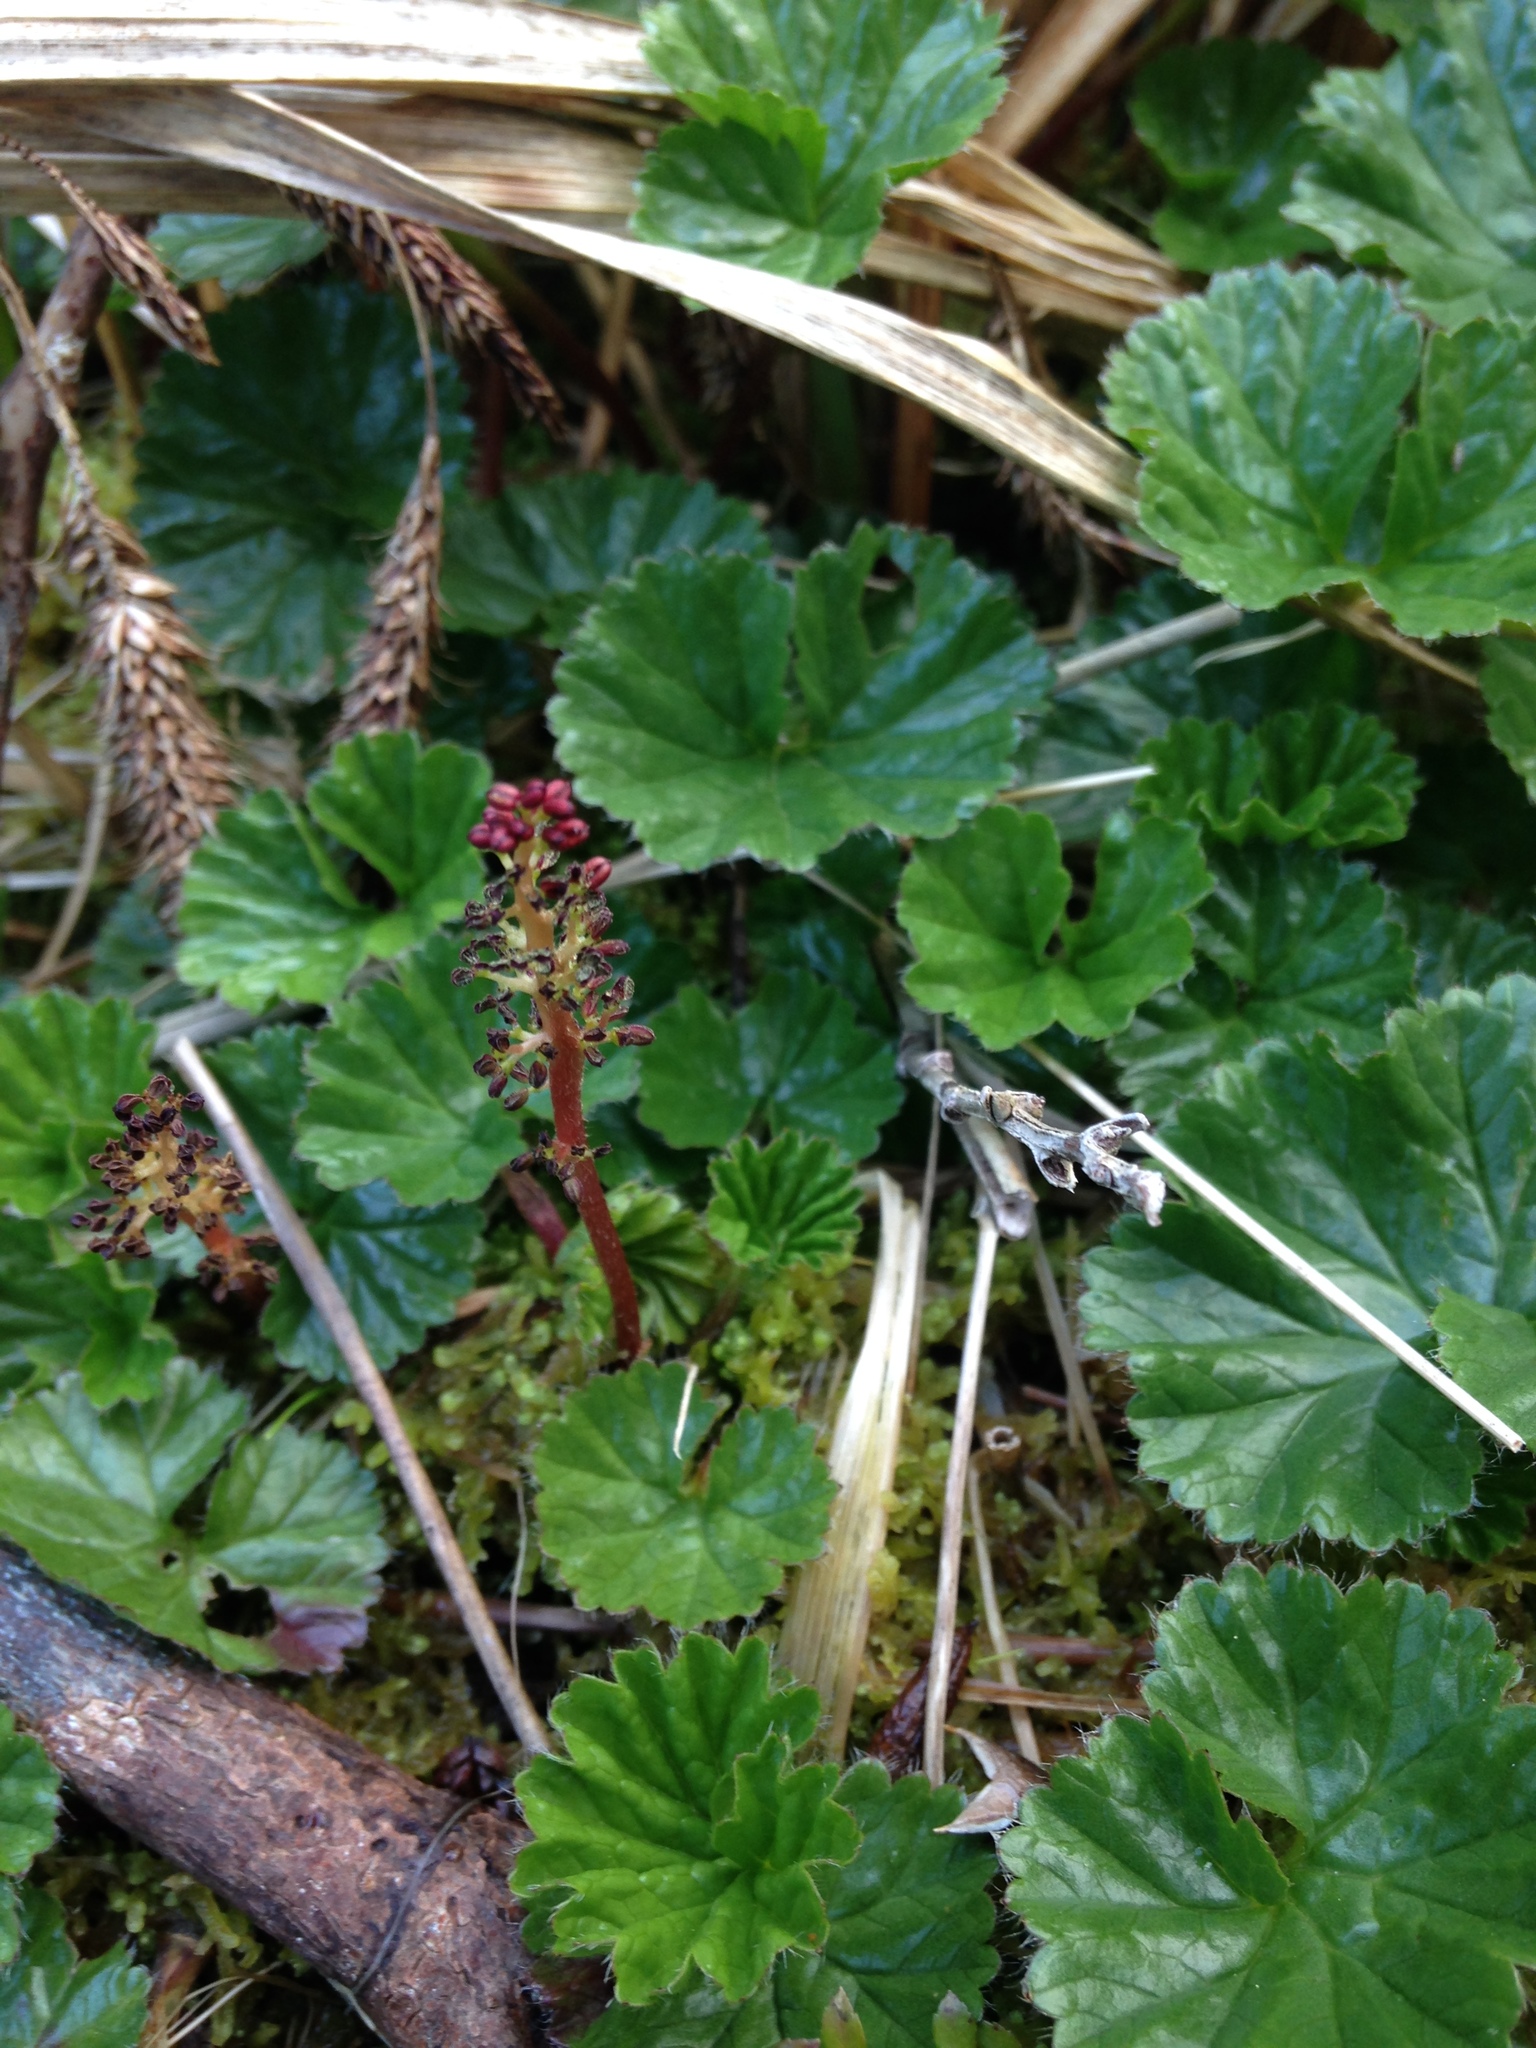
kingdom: Plantae
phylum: Tracheophyta
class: Magnoliopsida
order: Gunnerales
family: Gunneraceae
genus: Gunnera
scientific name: Gunnera magellanica
